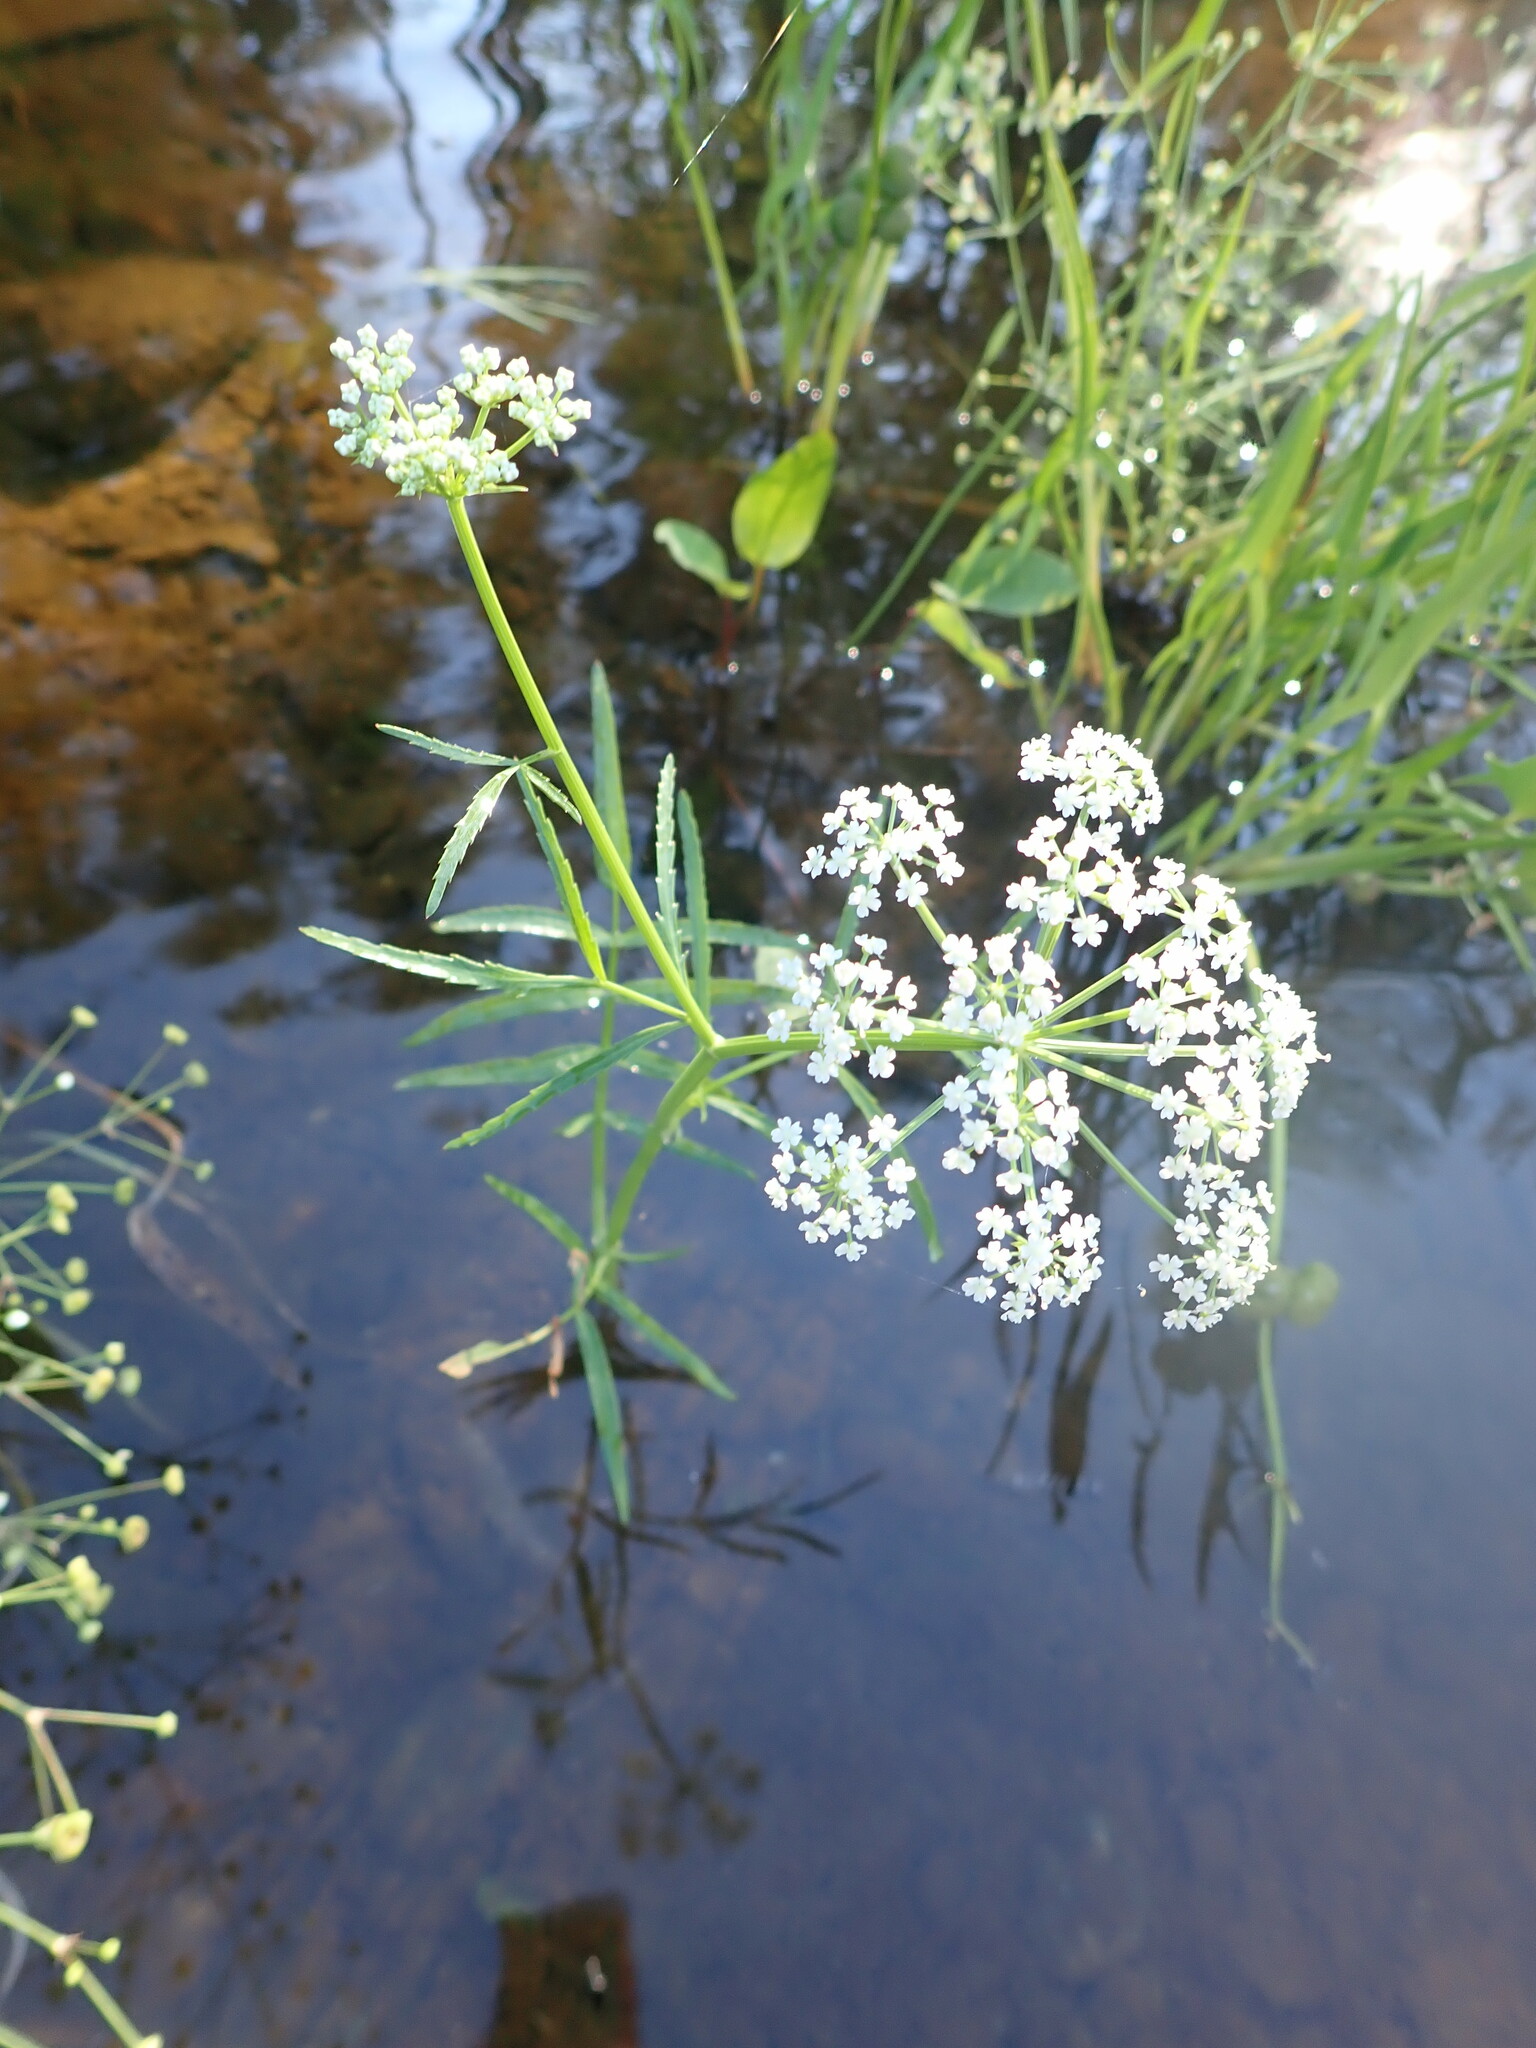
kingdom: Plantae
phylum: Tracheophyta
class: Magnoliopsida
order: Apiales
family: Apiaceae
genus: Sium
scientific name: Sium suave
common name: Hemlock water-parsnip
